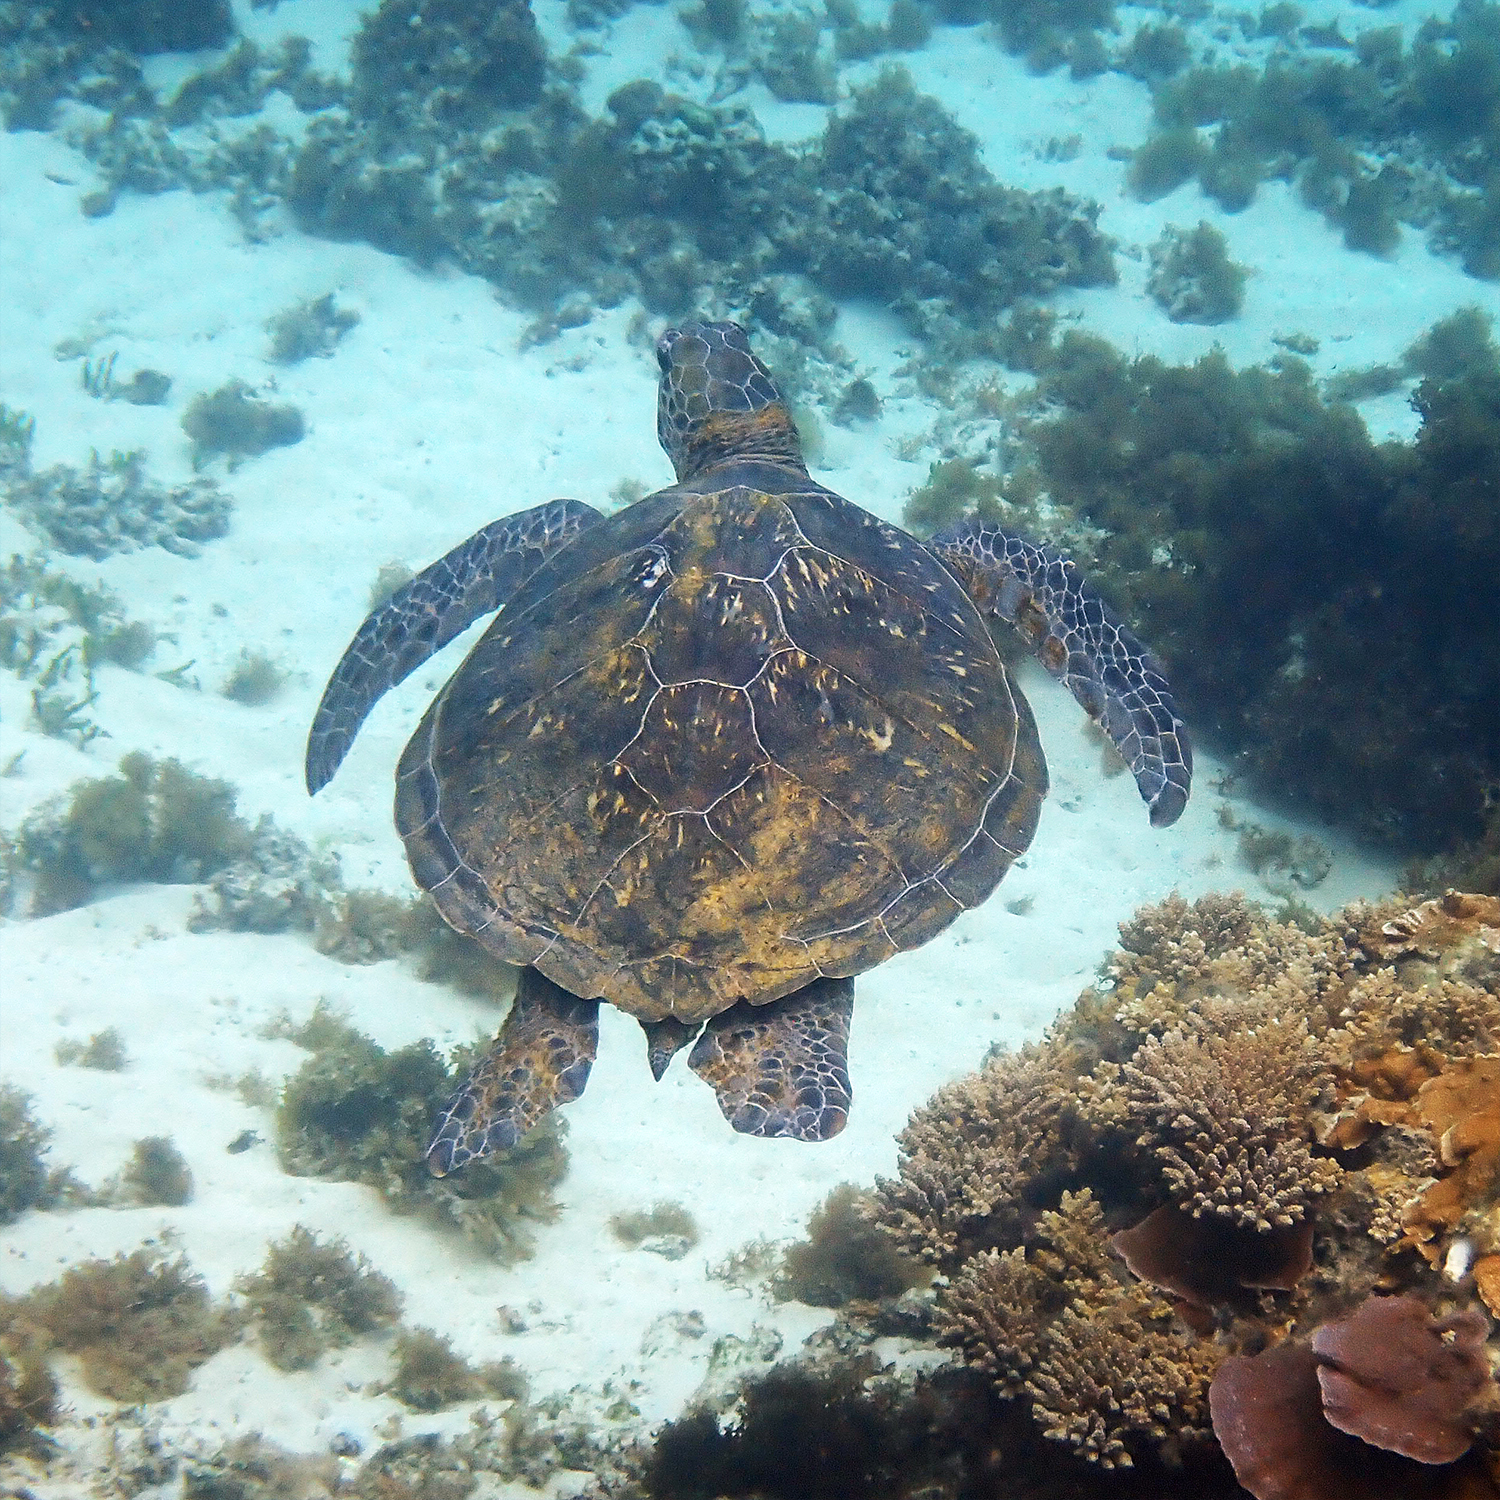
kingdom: Animalia
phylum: Chordata
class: Testudines
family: Cheloniidae
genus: Chelonia
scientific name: Chelonia mydas
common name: Green turtle
